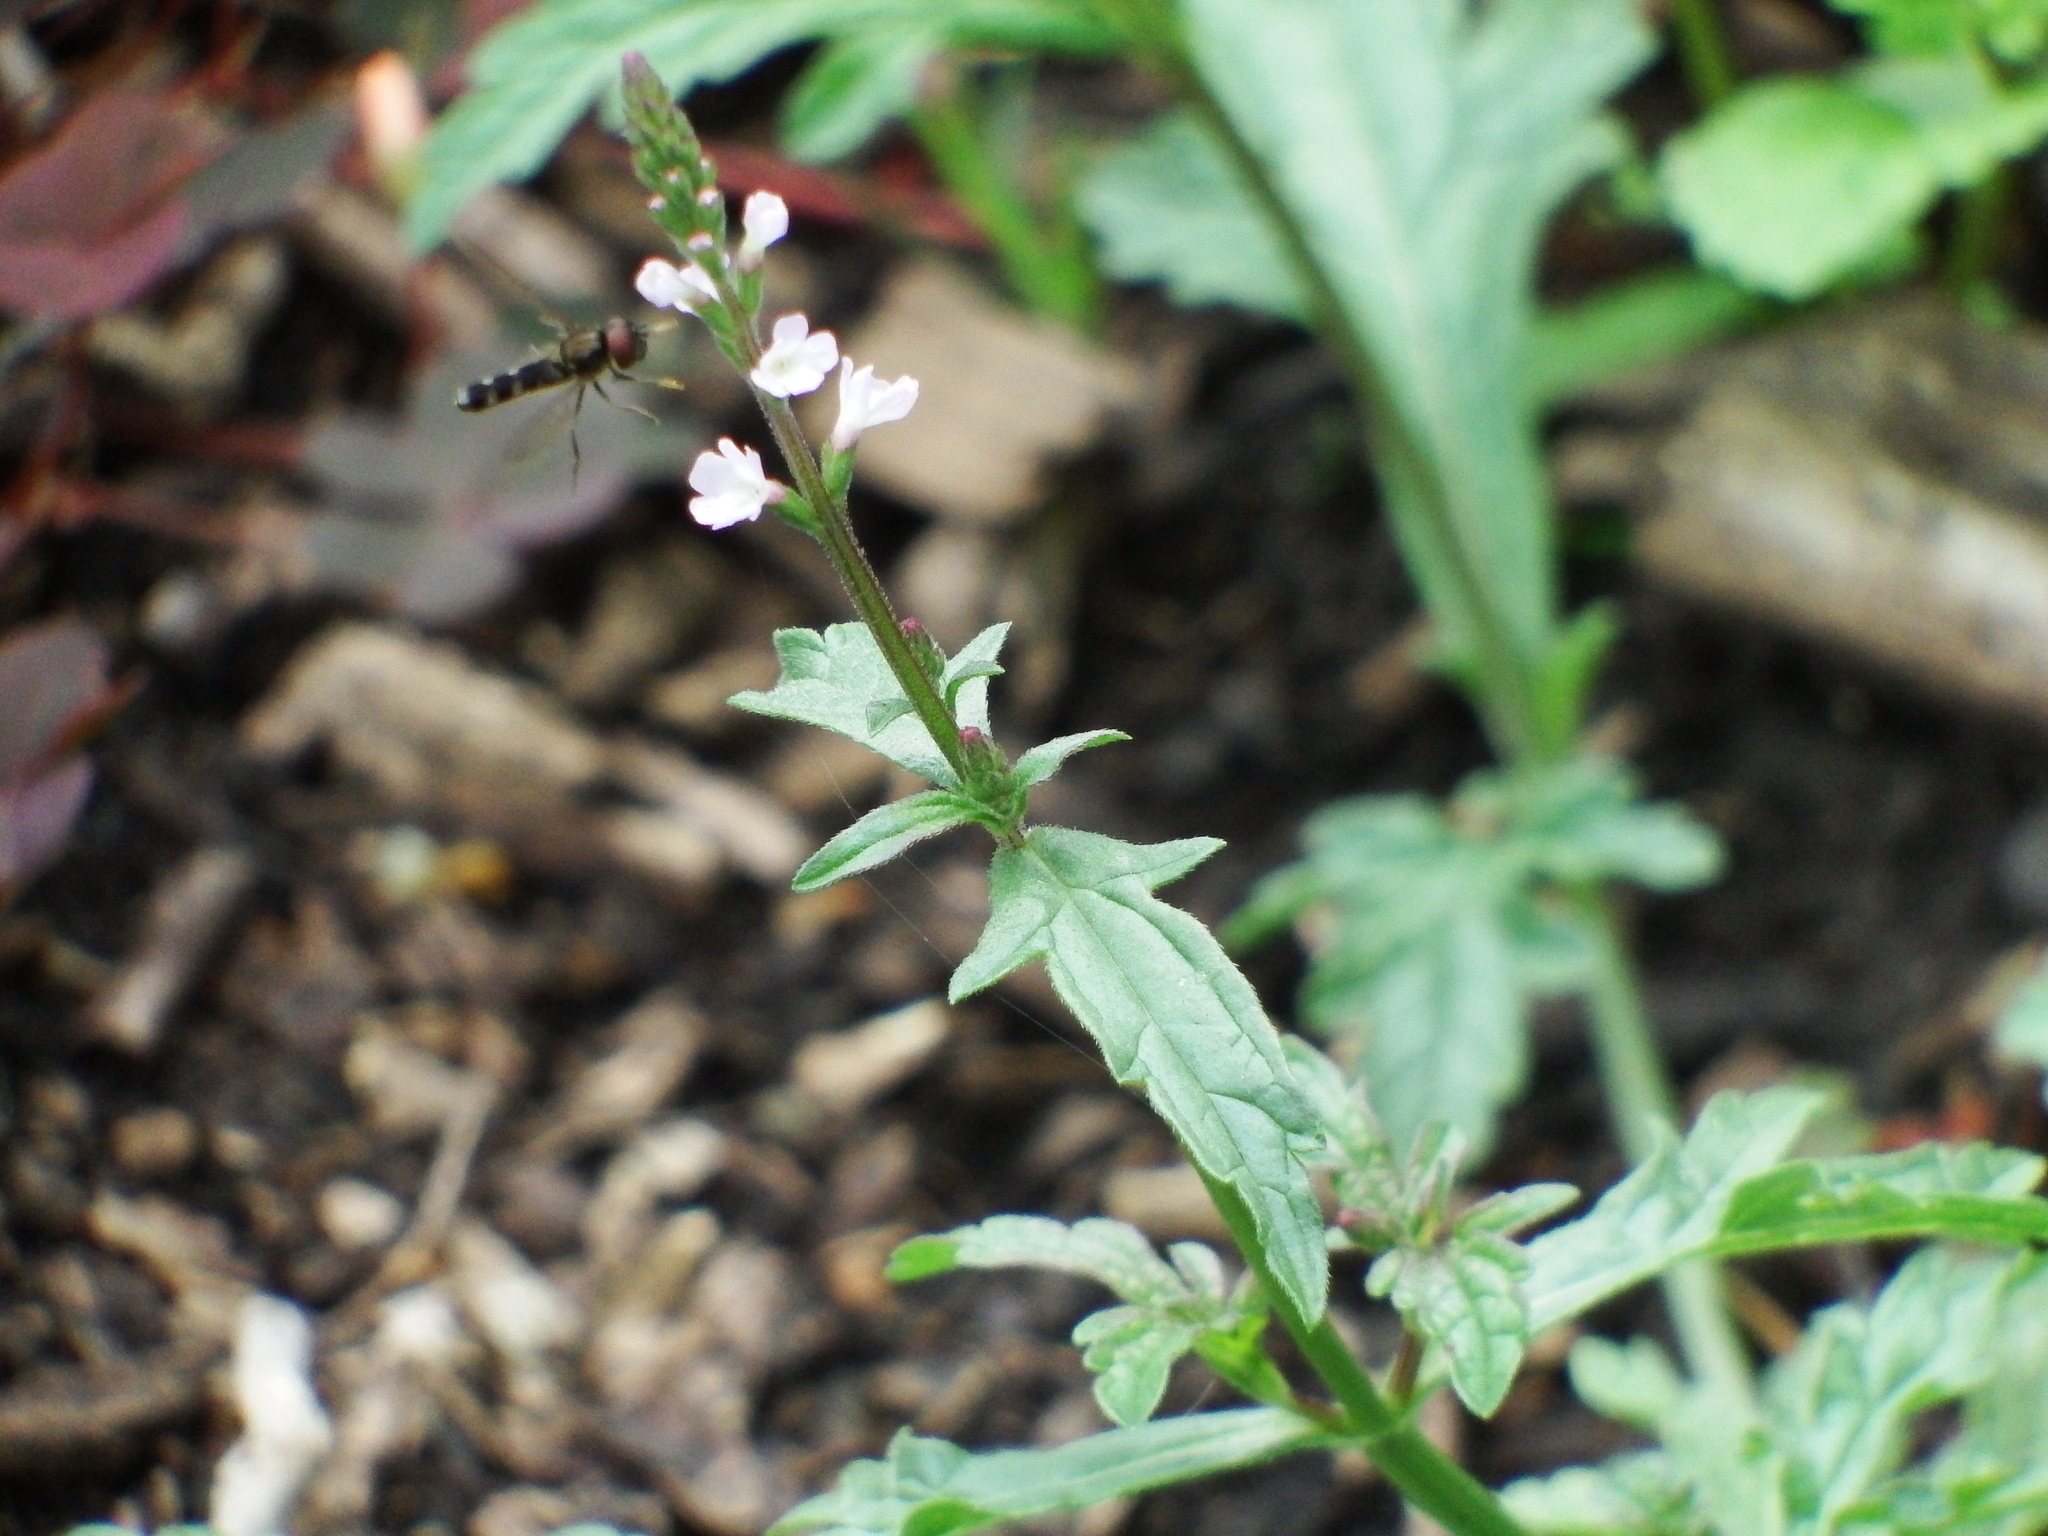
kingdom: Plantae
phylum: Tracheophyta
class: Magnoliopsida
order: Lamiales
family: Verbenaceae
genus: Verbena
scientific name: Verbena officinalis
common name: Vervain
